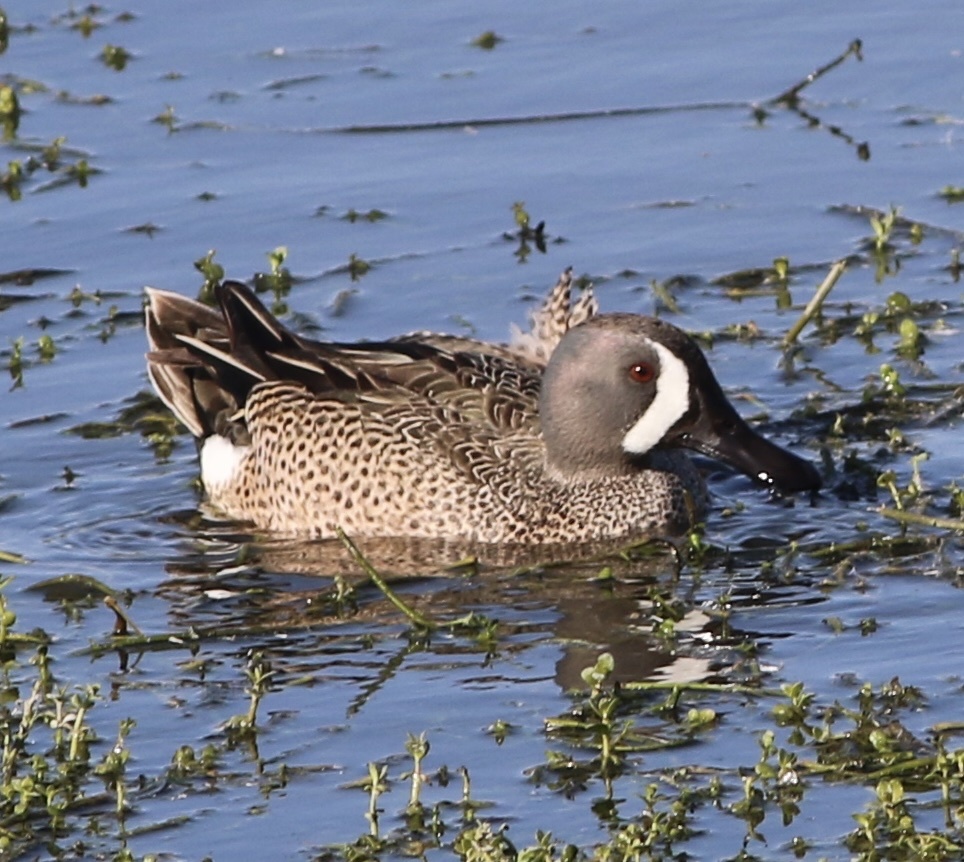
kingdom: Animalia
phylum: Chordata
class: Aves
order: Anseriformes
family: Anatidae
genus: Spatula
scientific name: Spatula discors
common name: Blue-winged teal
